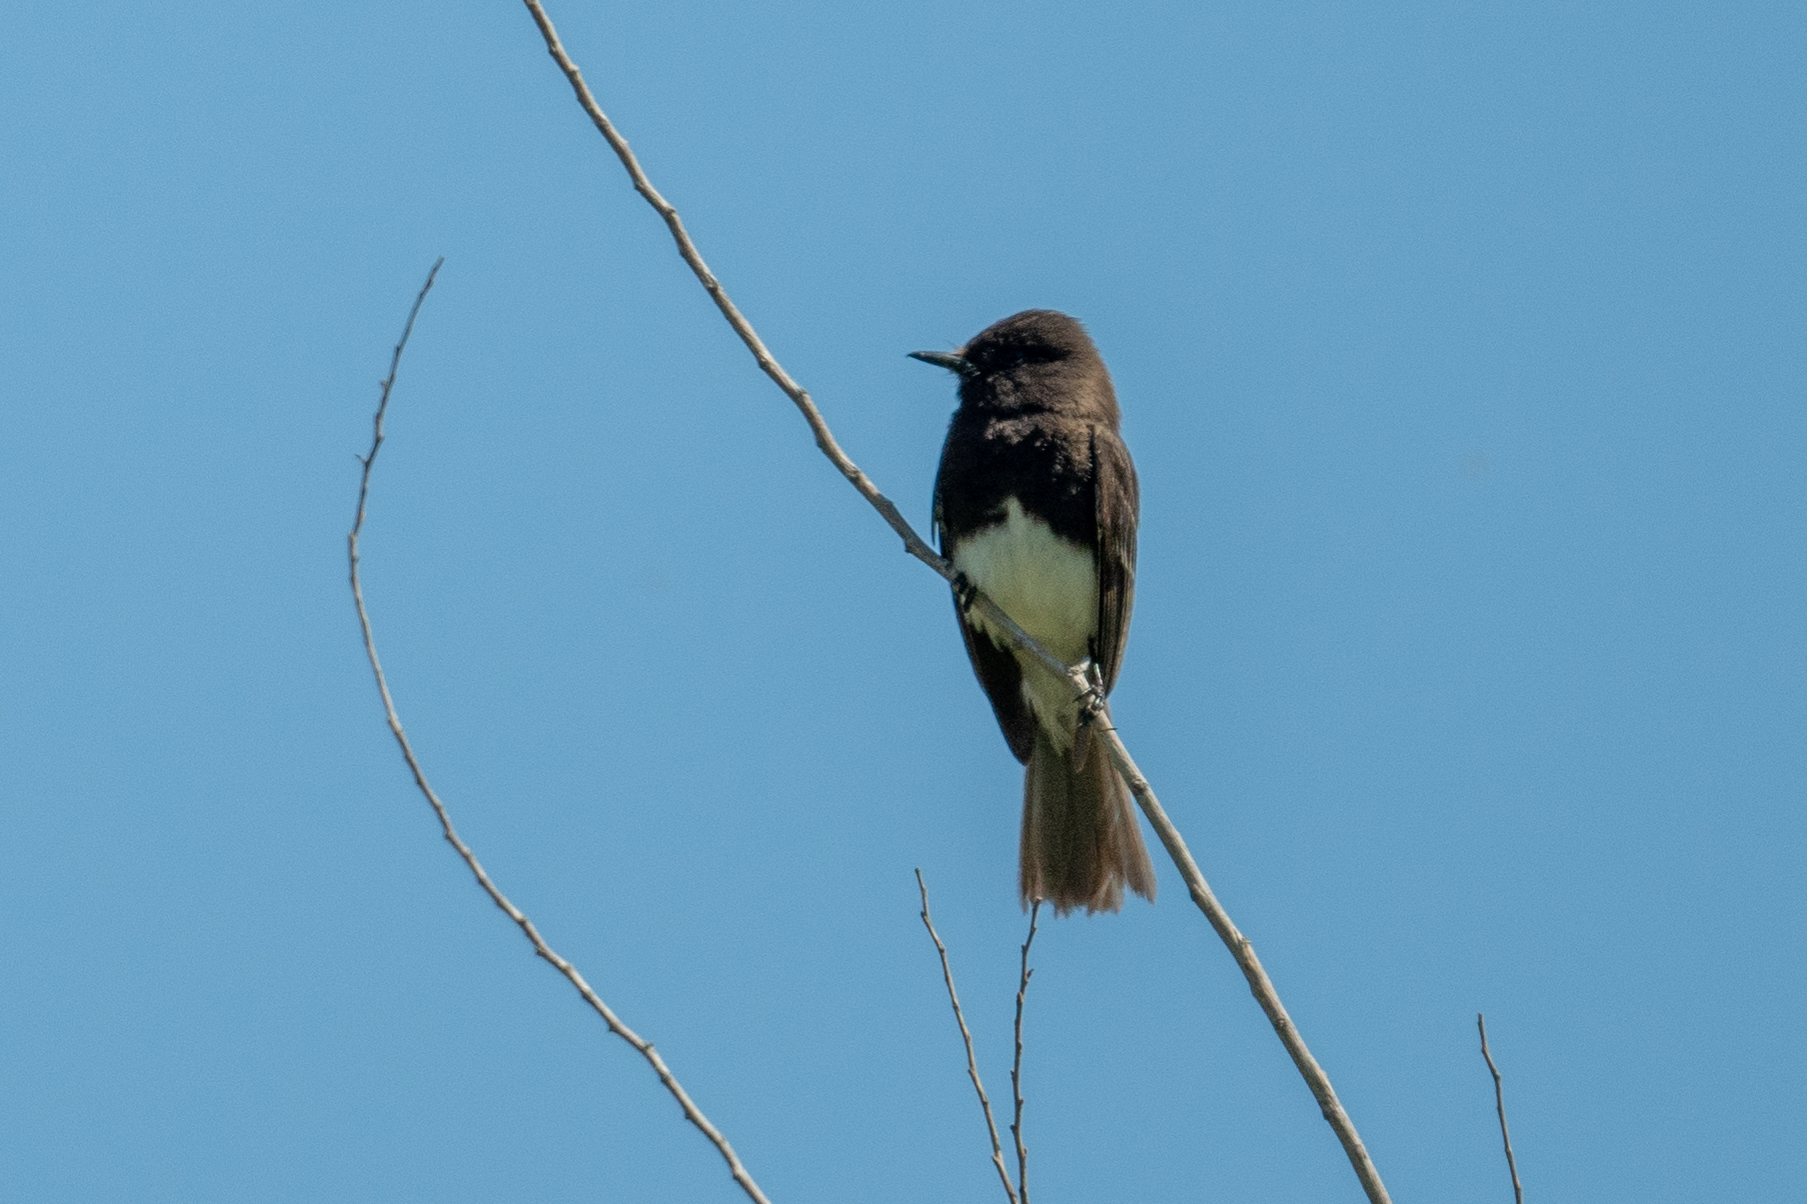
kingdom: Animalia
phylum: Chordata
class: Aves
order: Passeriformes
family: Tyrannidae
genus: Sayornis
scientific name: Sayornis nigricans
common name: Black phoebe
